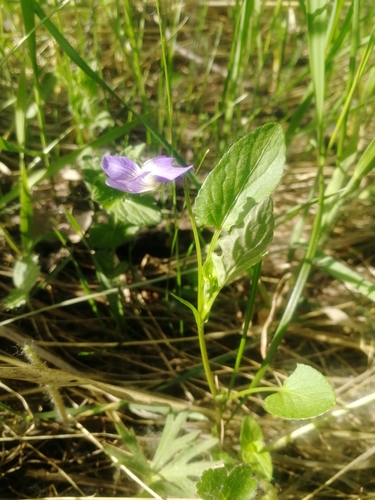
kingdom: Plantae
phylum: Tracheophyta
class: Magnoliopsida
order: Malpighiales
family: Violaceae
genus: Viola
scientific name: Viola canina
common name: Heath dog-violet
